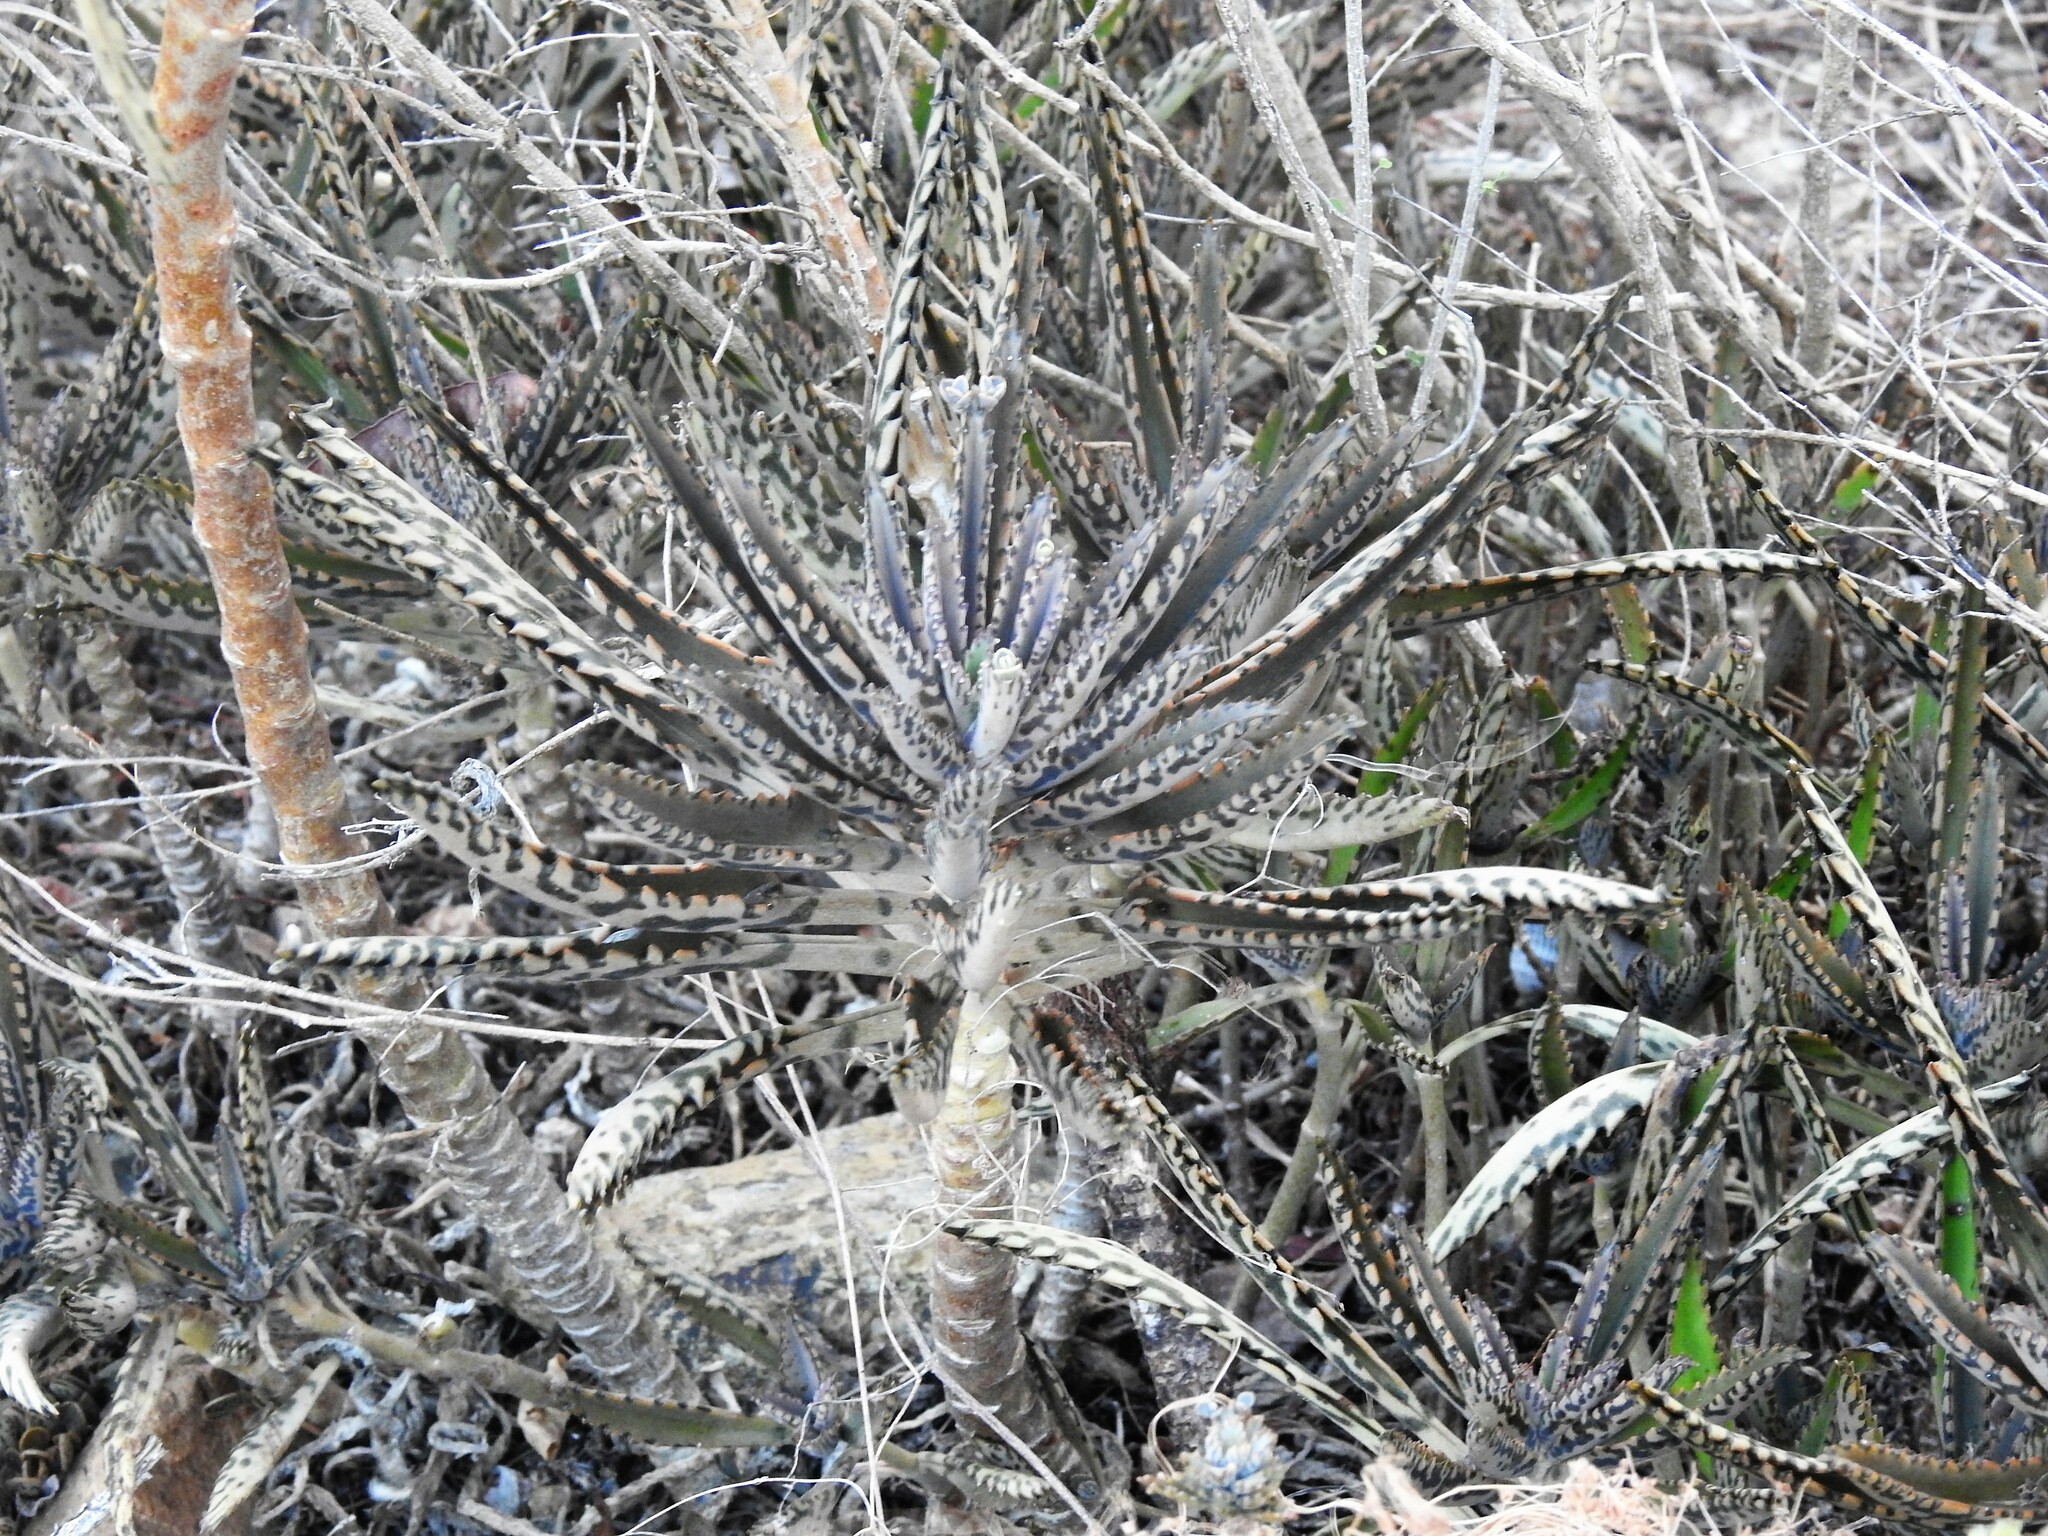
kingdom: Plantae
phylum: Tracheophyta
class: Magnoliopsida
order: Saxifragales
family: Crassulaceae
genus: Kalanchoe
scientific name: Kalanchoe houghtonii
